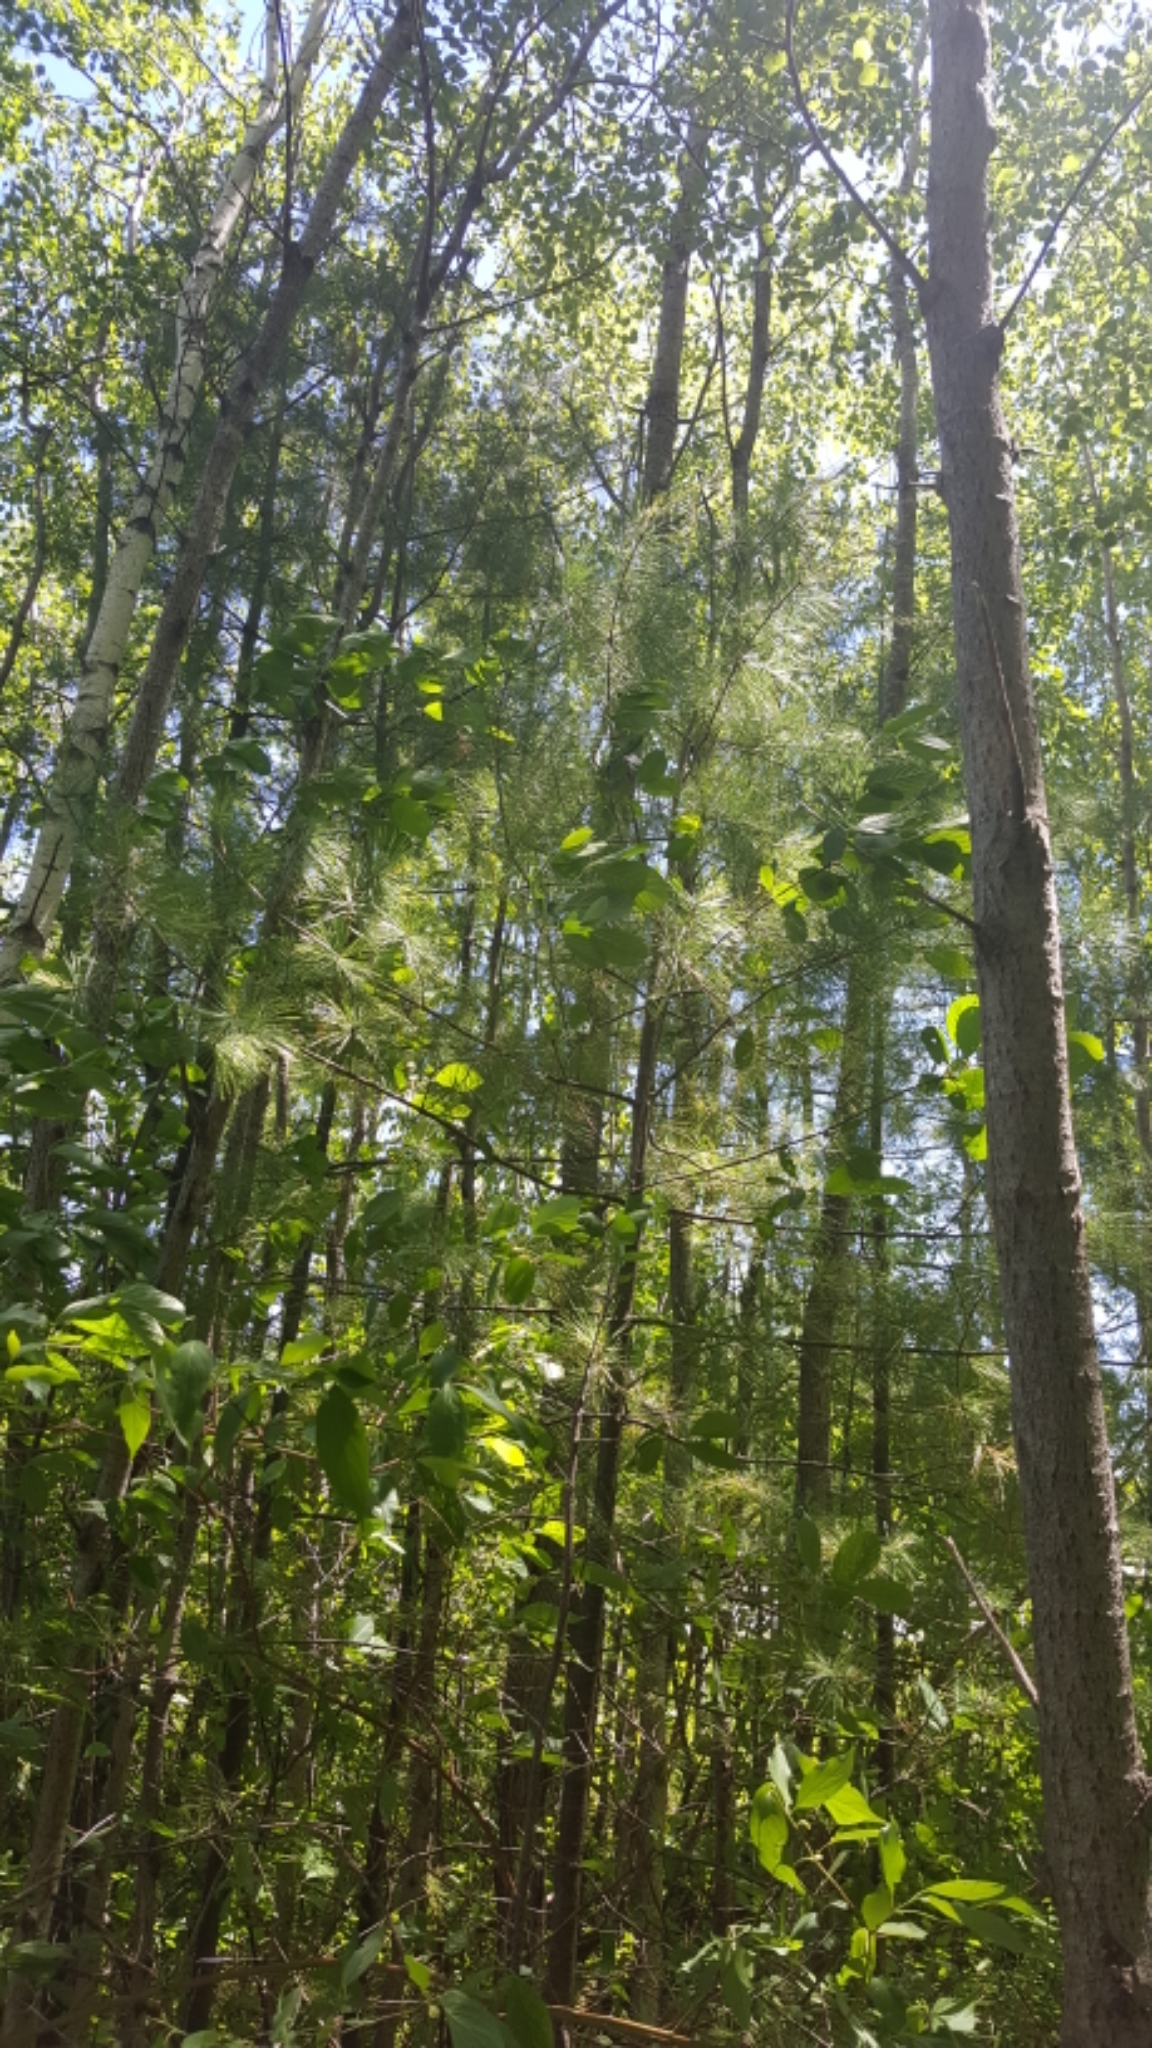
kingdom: Plantae
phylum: Tracheophyta
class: Pinopsida
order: Pinales
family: Pinaceae
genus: Pinus
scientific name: Pinus strobus
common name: Weymouth pine
